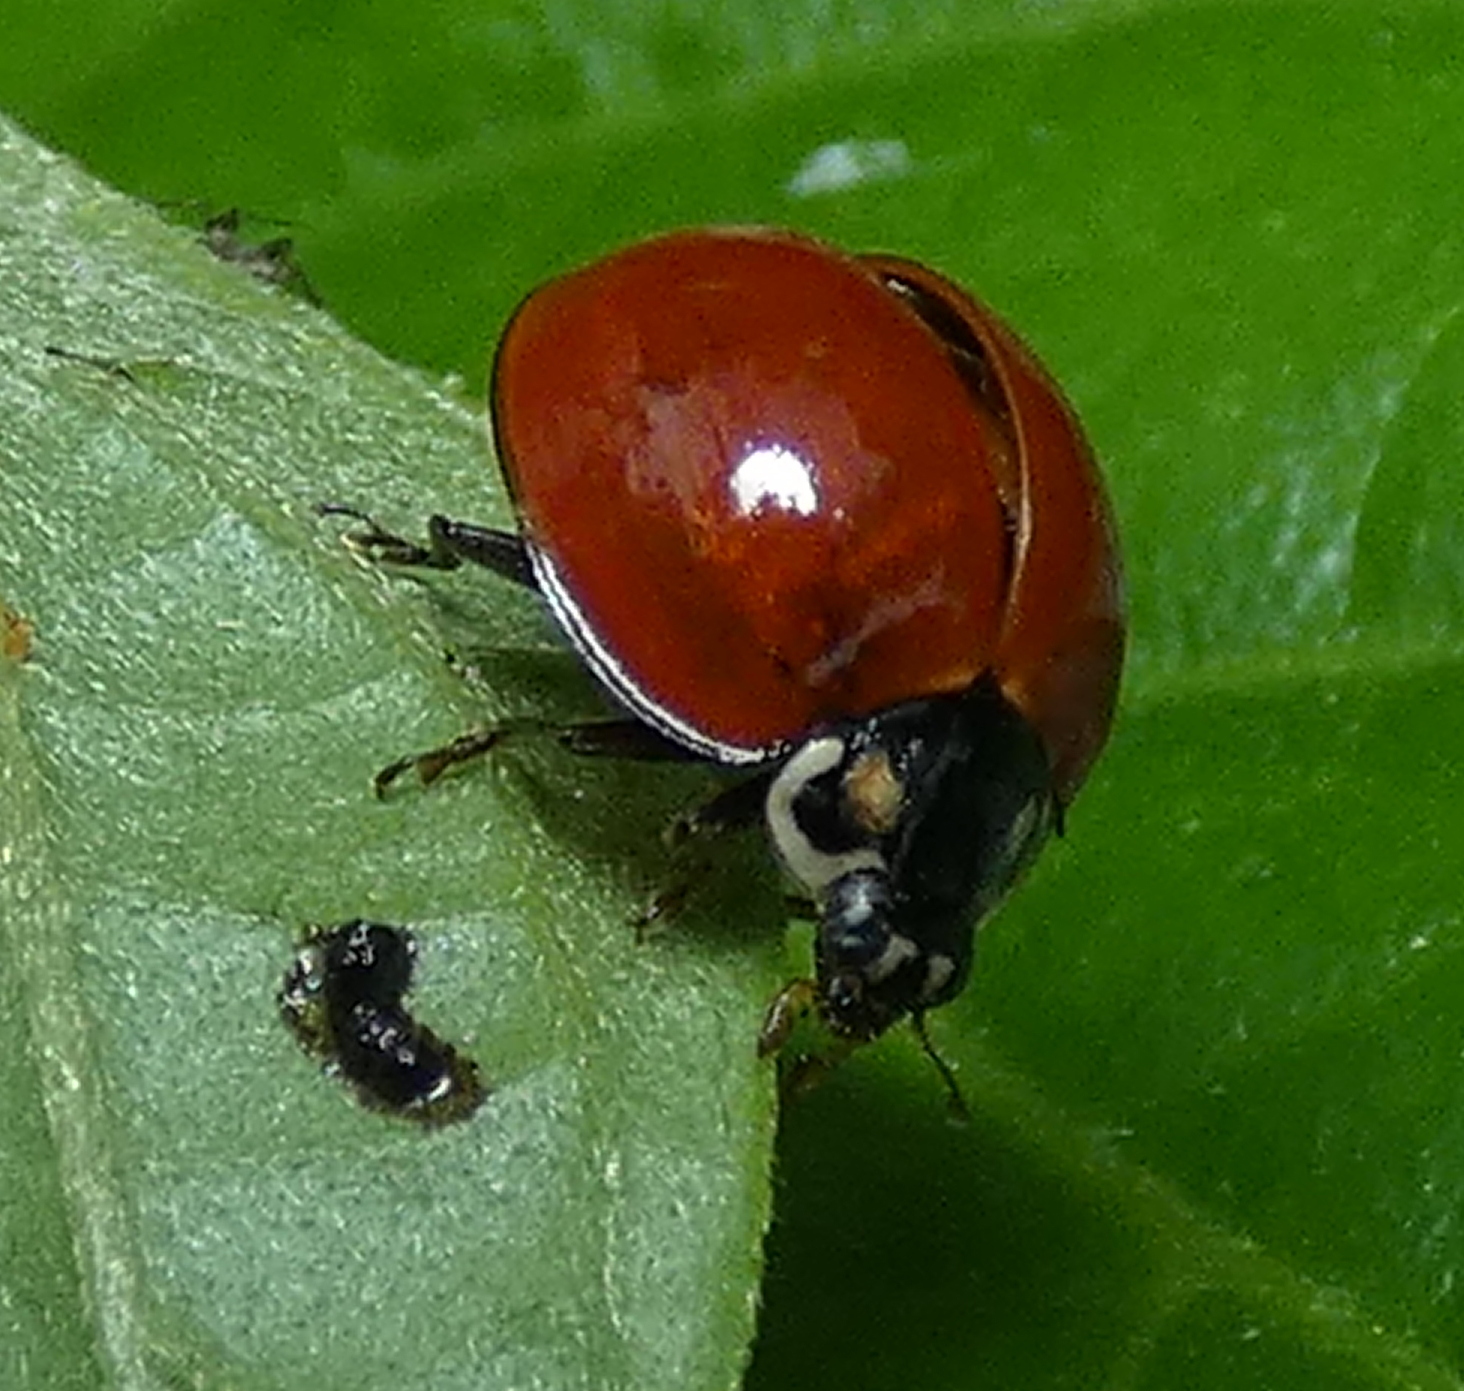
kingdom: Animalia
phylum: Arthropoda
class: Insecta
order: Coleoptera
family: Coccinellidae
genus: Cycloneda
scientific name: Cycloneda sanguinea
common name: Ladybird beetle
